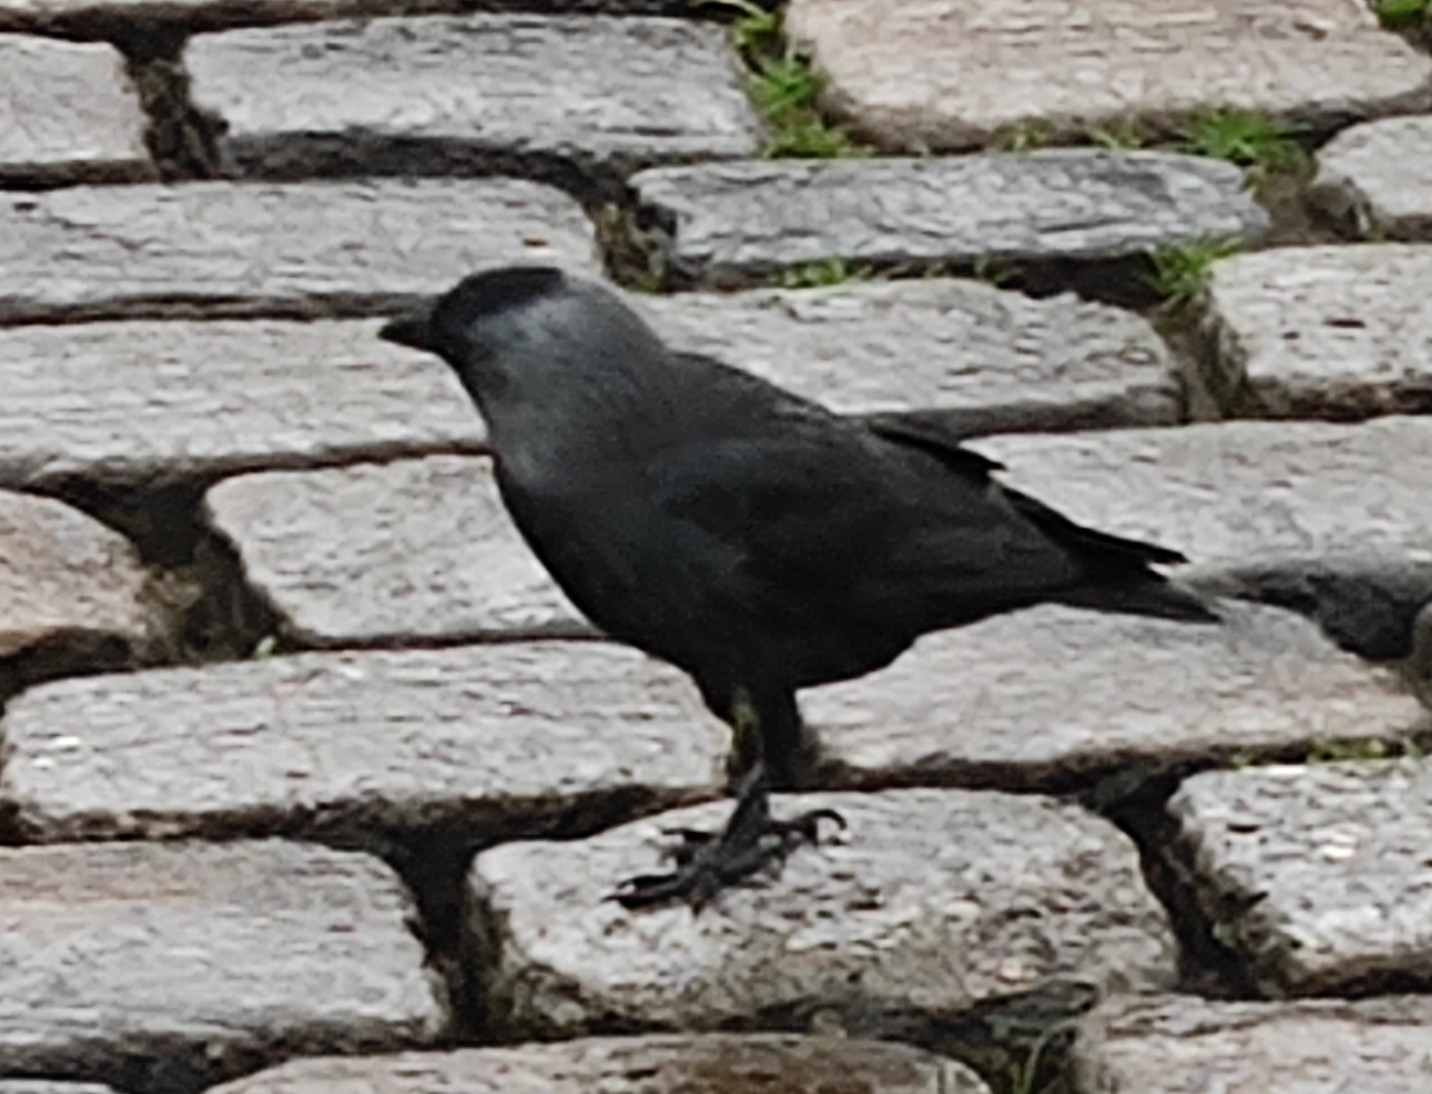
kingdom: Animalia
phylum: Chordata
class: Aves
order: Passeriformes
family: Corvidae
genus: Coloeus
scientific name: Coloeus monedula
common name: Western jackdaw
